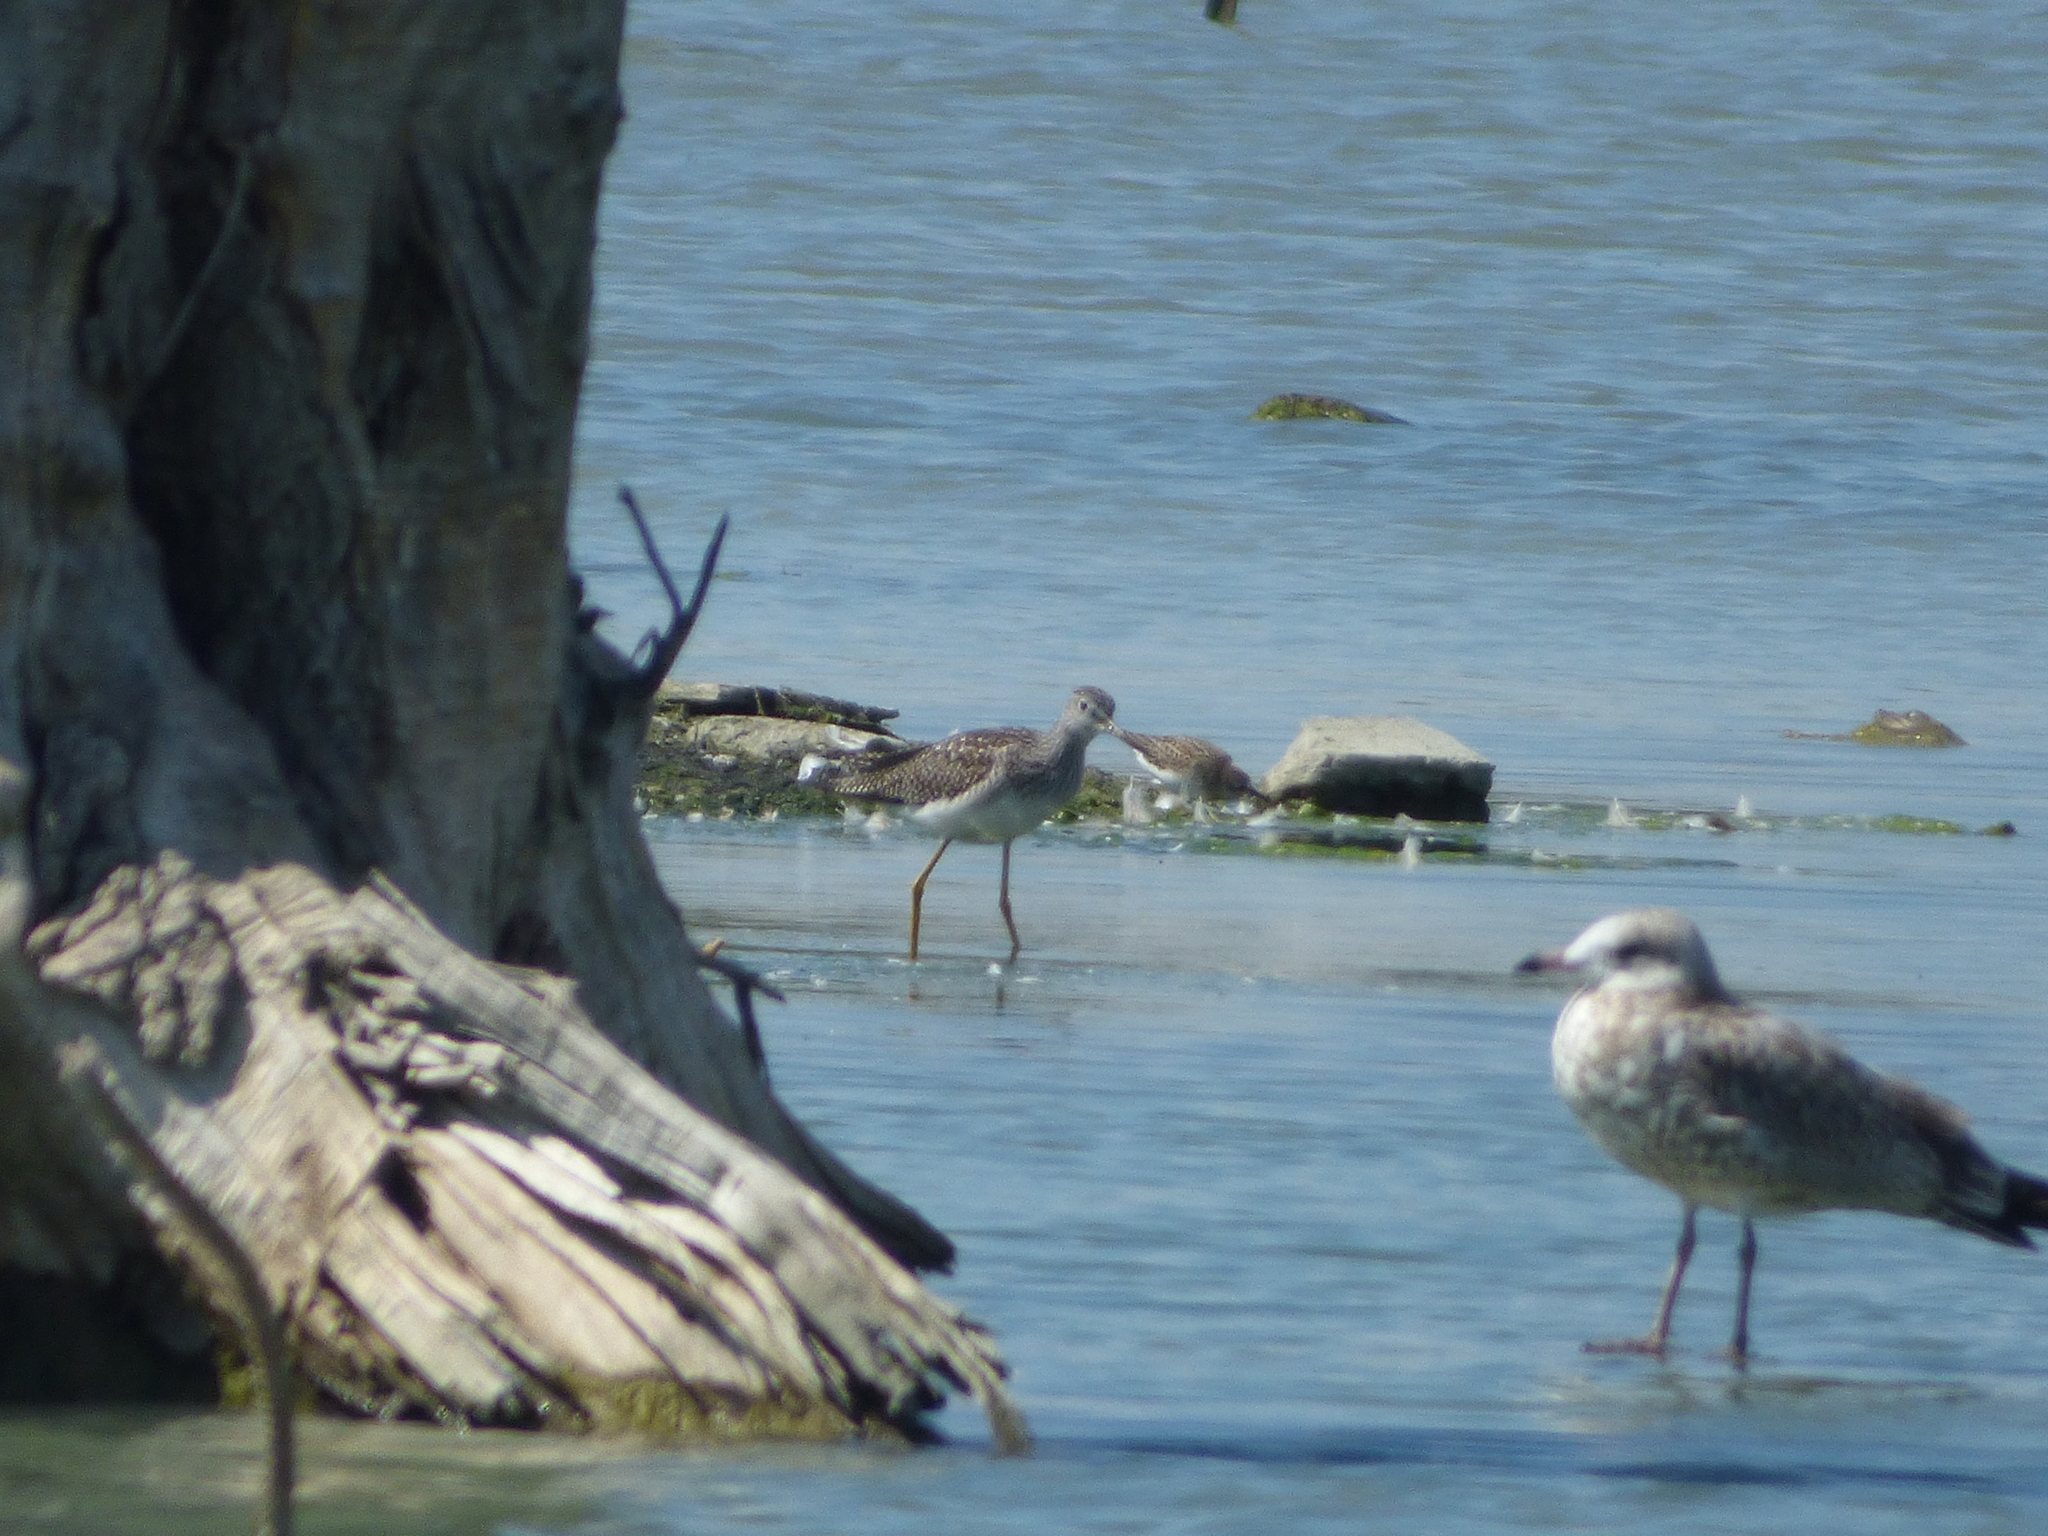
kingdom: Animalia
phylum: Chordata
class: Aves
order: Charadriiformes
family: Scolopacidae
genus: Tringa
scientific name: Tringa melanoleuca
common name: Greater yellowlegs
